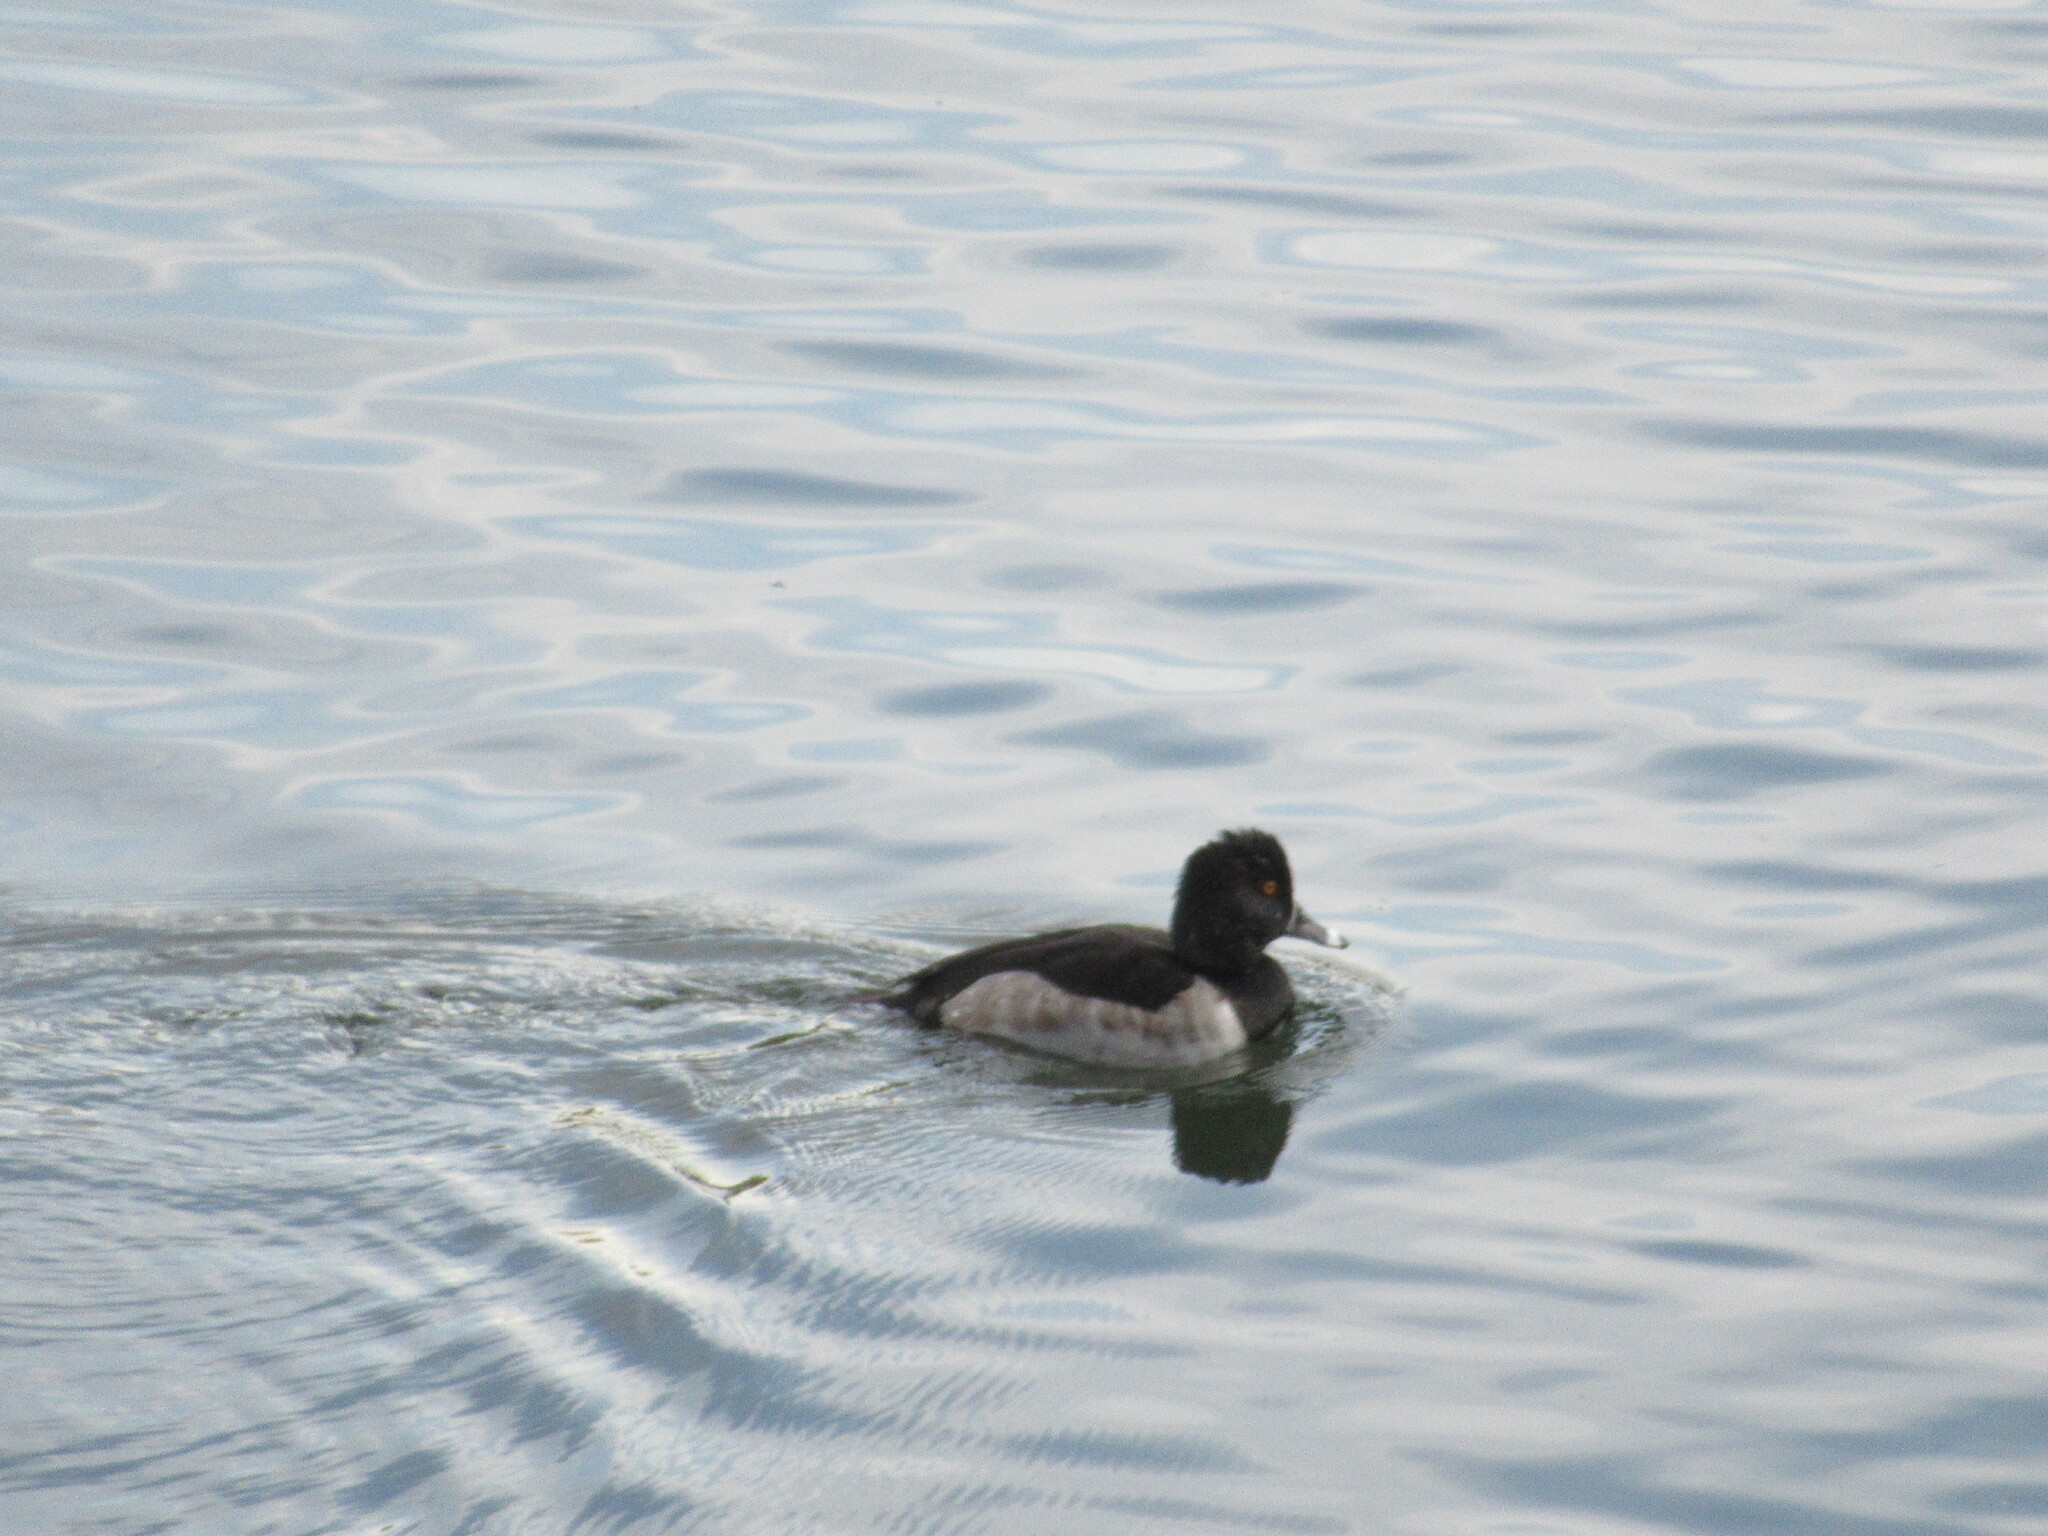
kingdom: Animalia
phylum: Chordata
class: Aves
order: Anseriformes
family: Anatidae
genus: Aythya
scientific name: Aythya collaris
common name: Ring-necked duck
